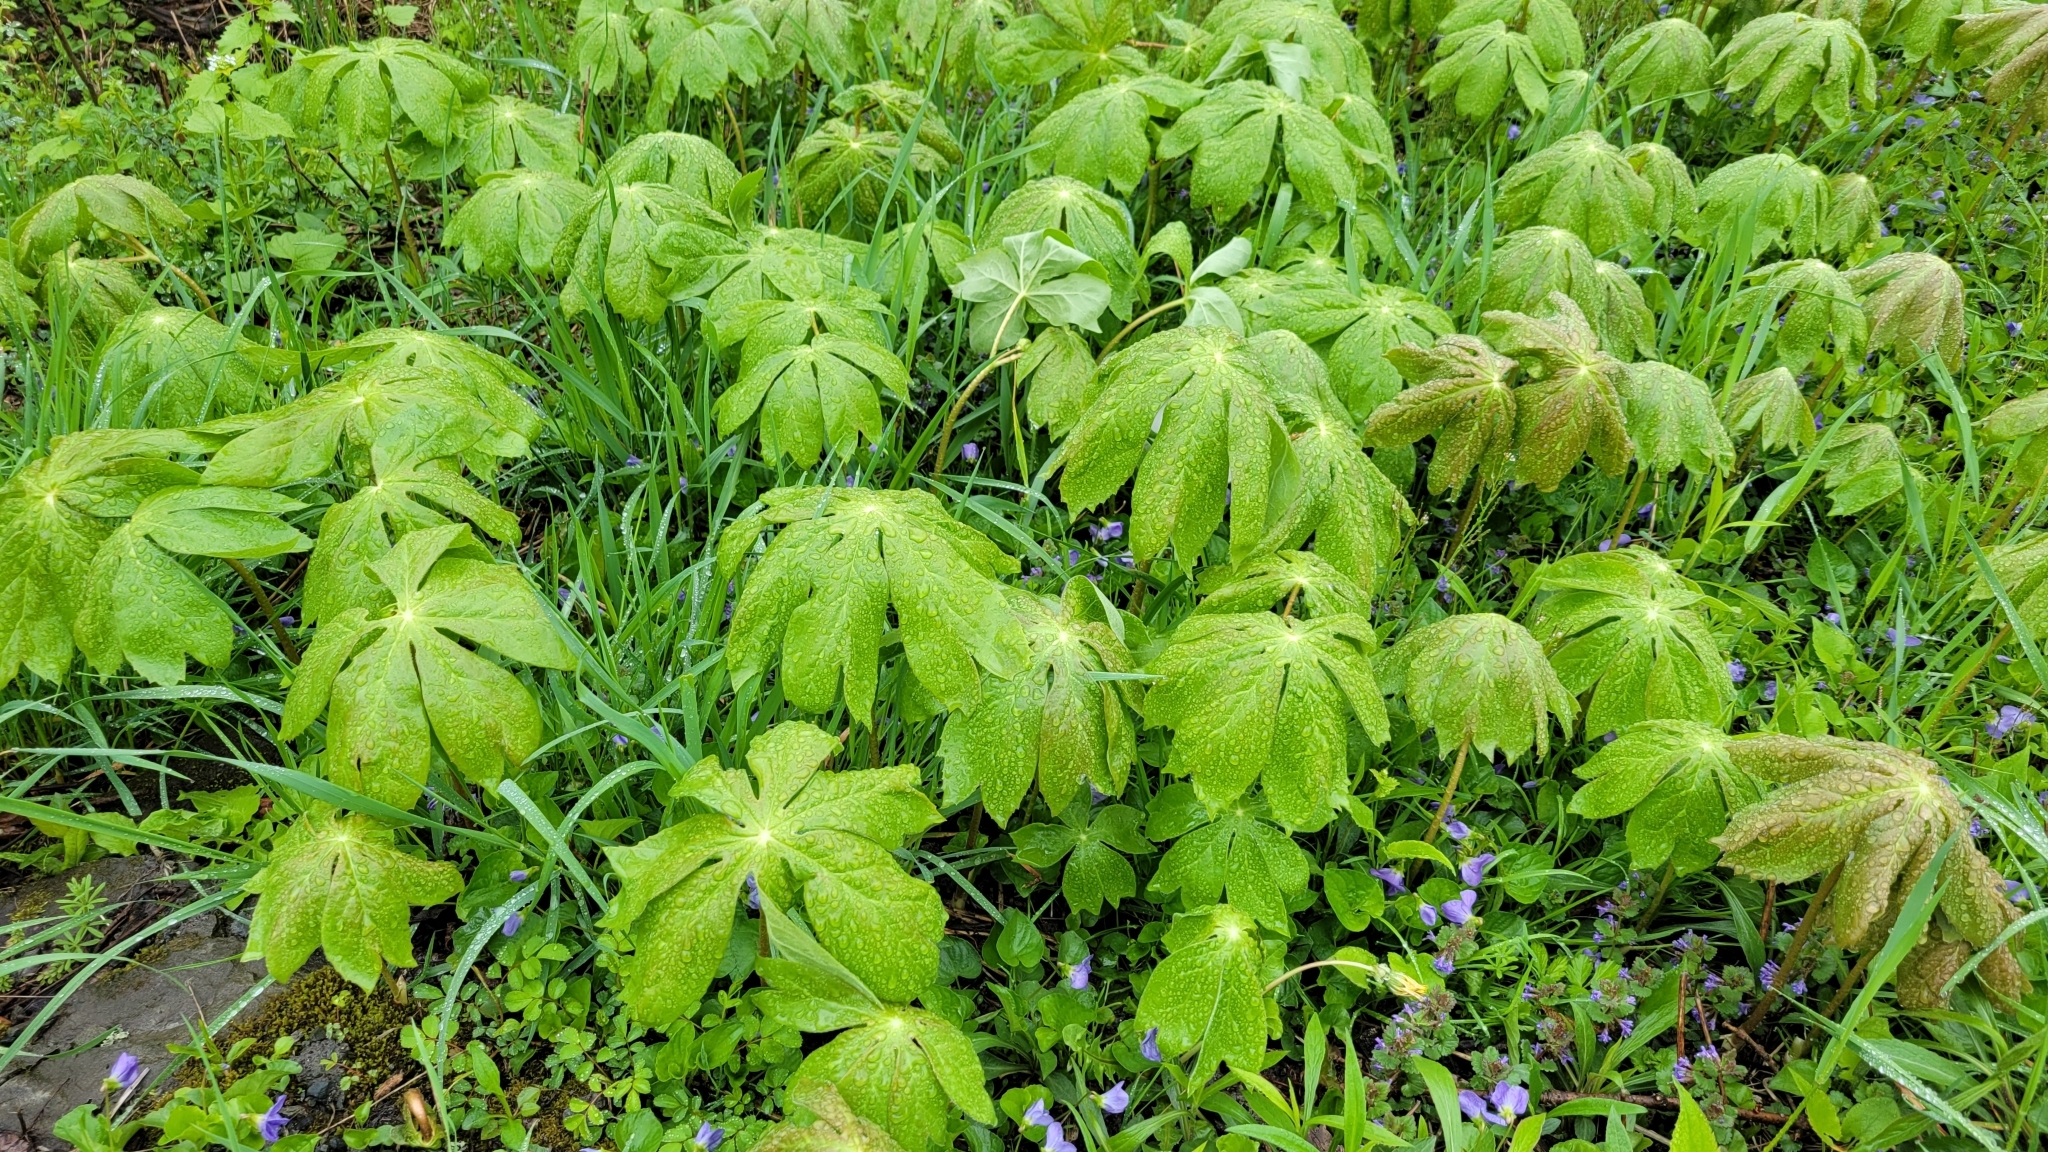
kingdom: Plantae
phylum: Tracheophyta
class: Magnoliopsida
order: Ranunculales
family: Berberidaceae
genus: Podophyllum
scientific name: Podophyllum peltatum
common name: Wild mandrake
